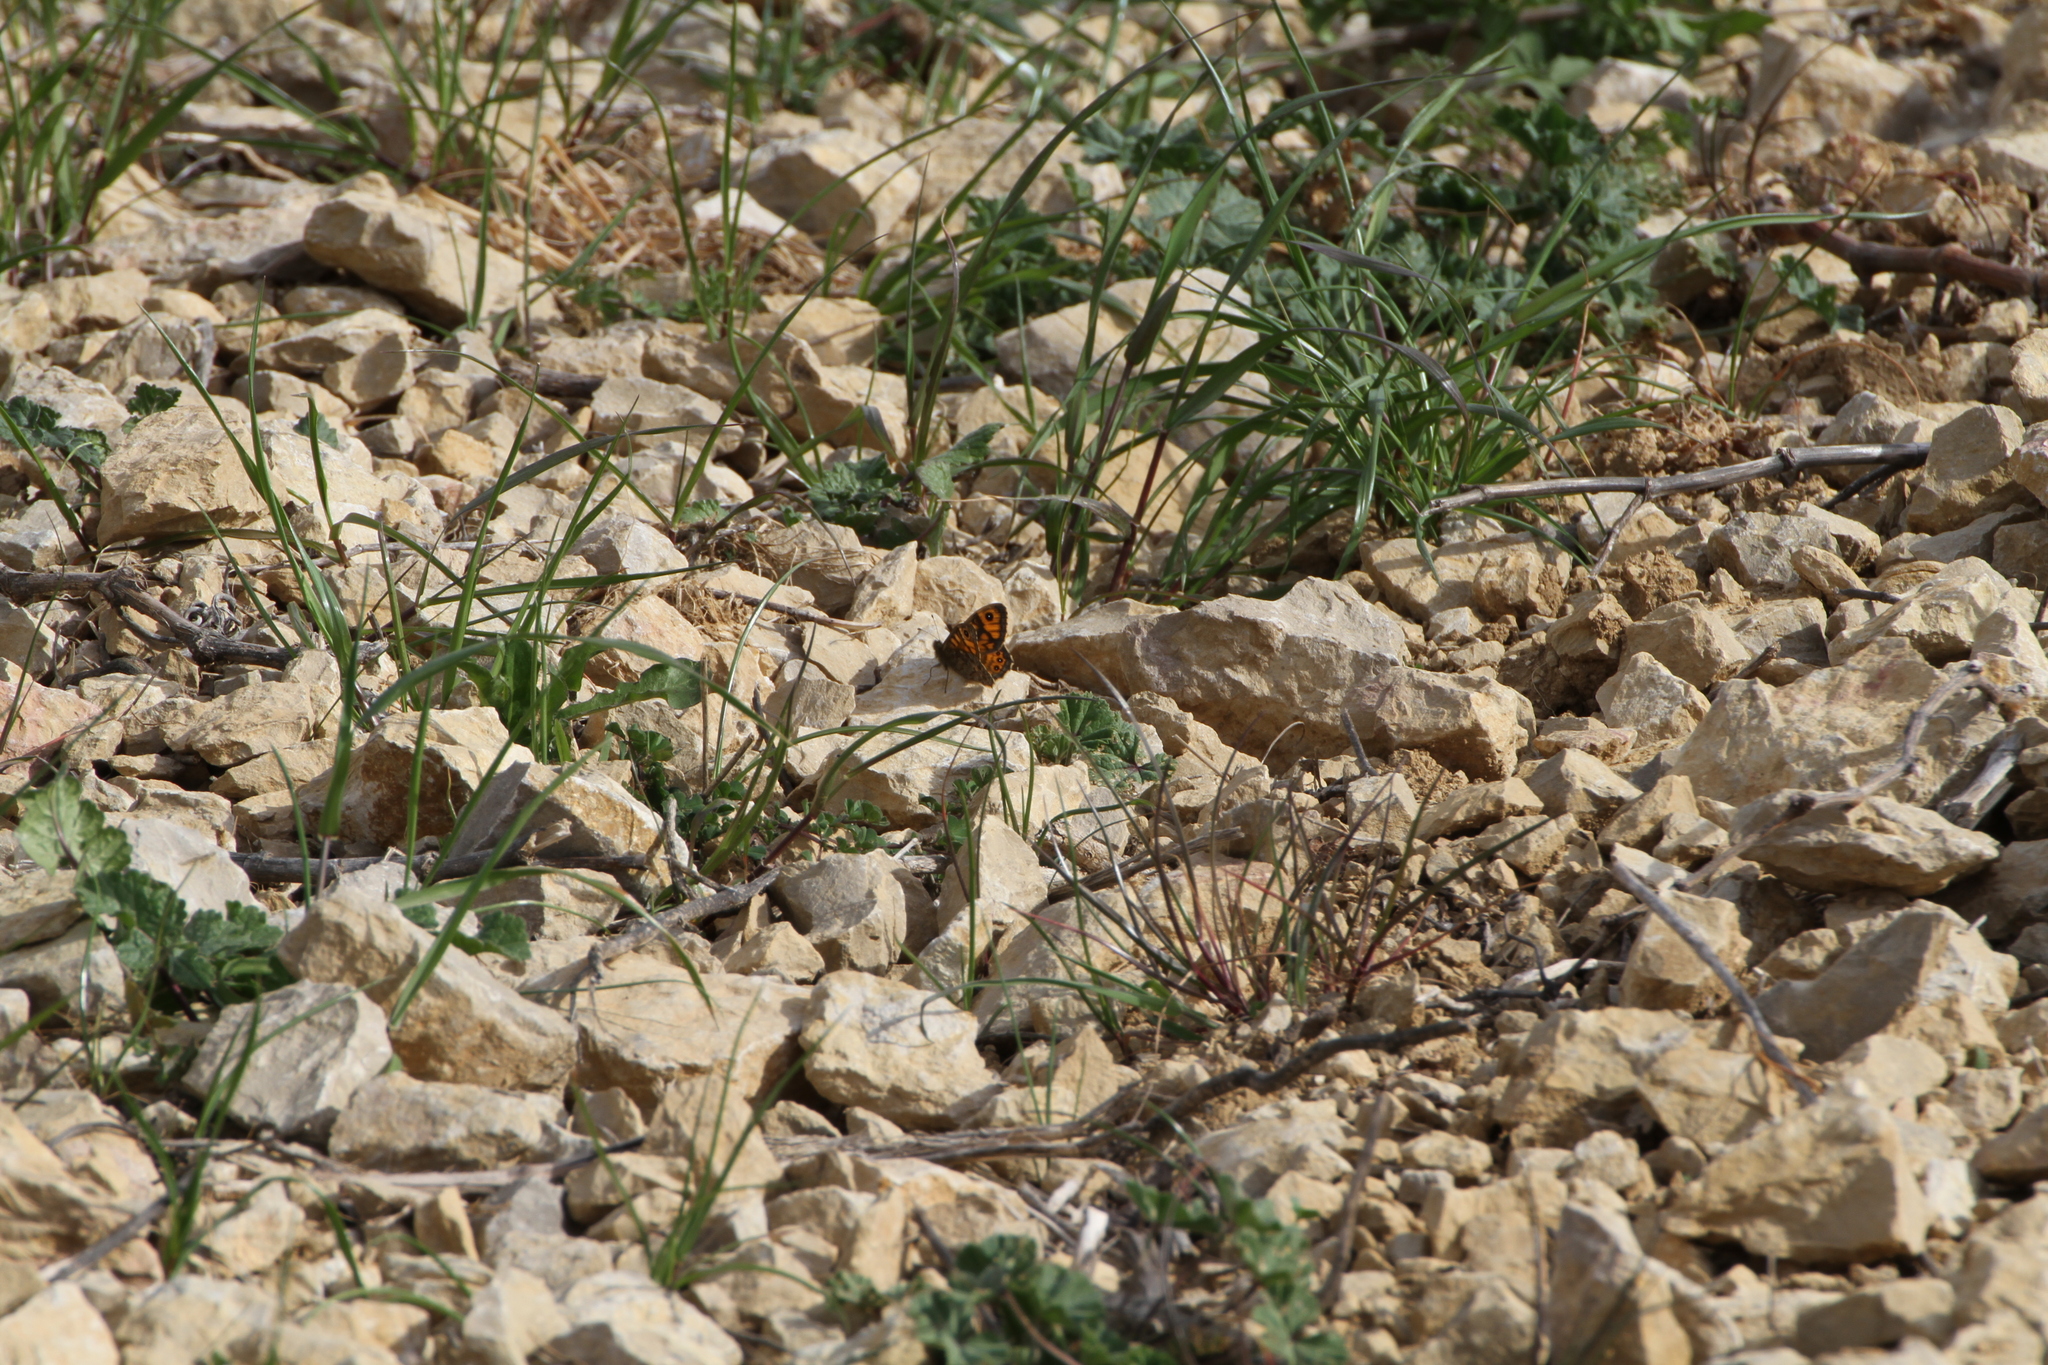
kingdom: Animalia
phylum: Arthropoda
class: Insecta
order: Lepidoptera
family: Nymphalidae
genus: Pararge
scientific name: Pararge Lasiommata megera
